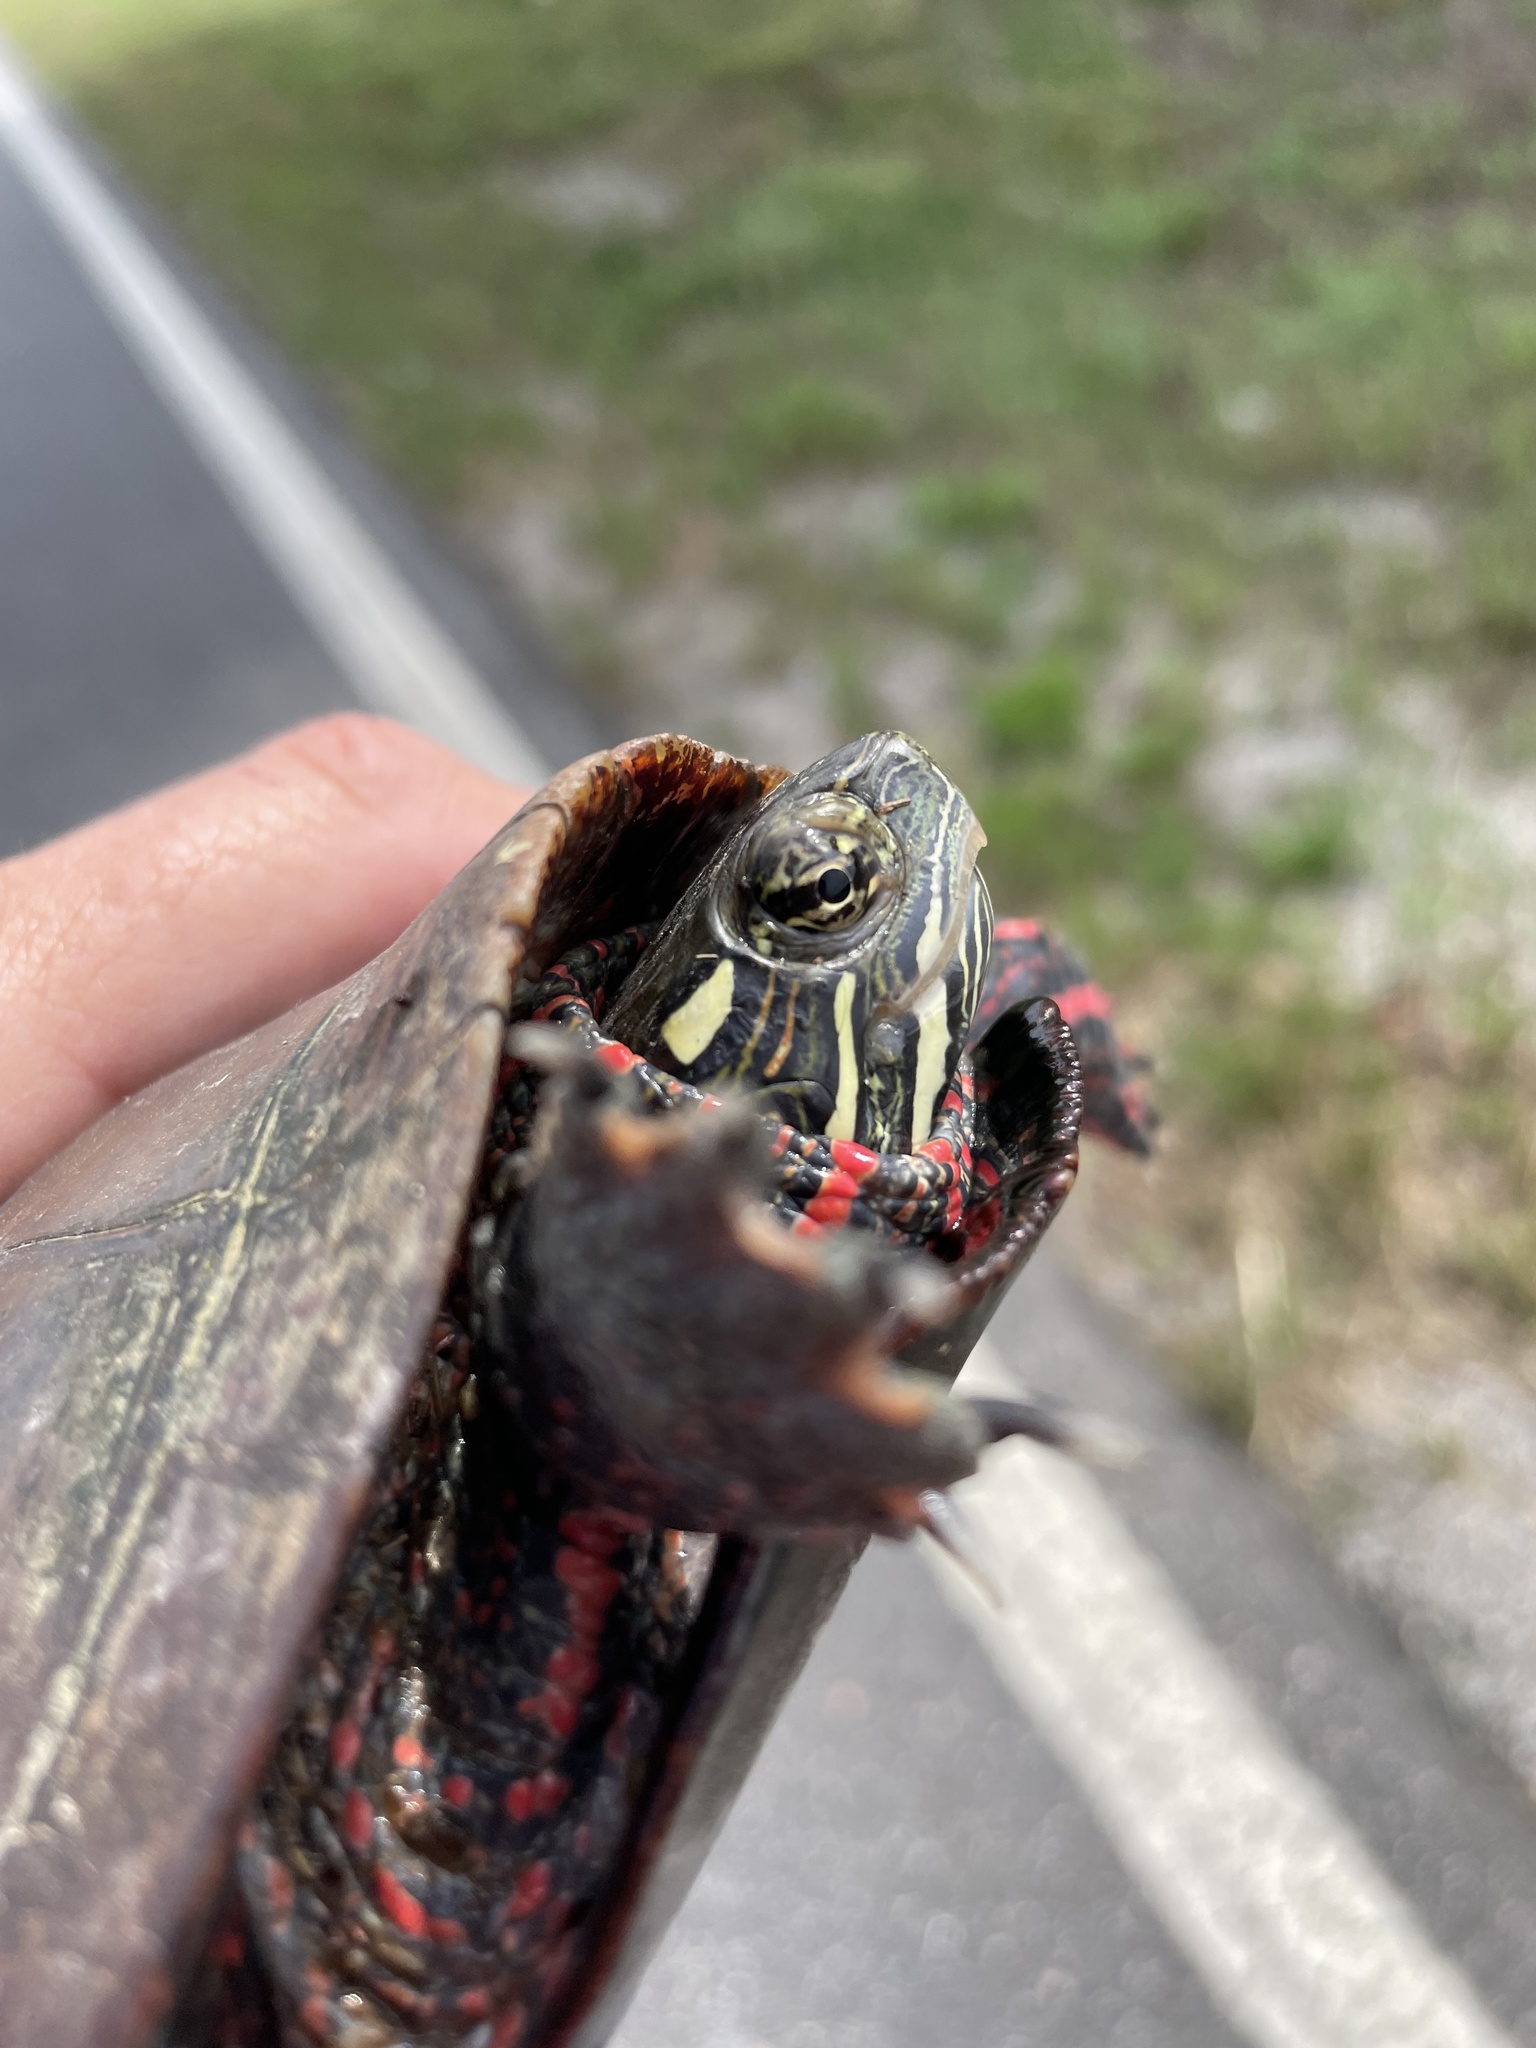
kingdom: Animalia
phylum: Chordata
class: Testudines
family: Emydidae
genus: Chrysemys
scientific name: Chrysemys picta
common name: Painted turtle
